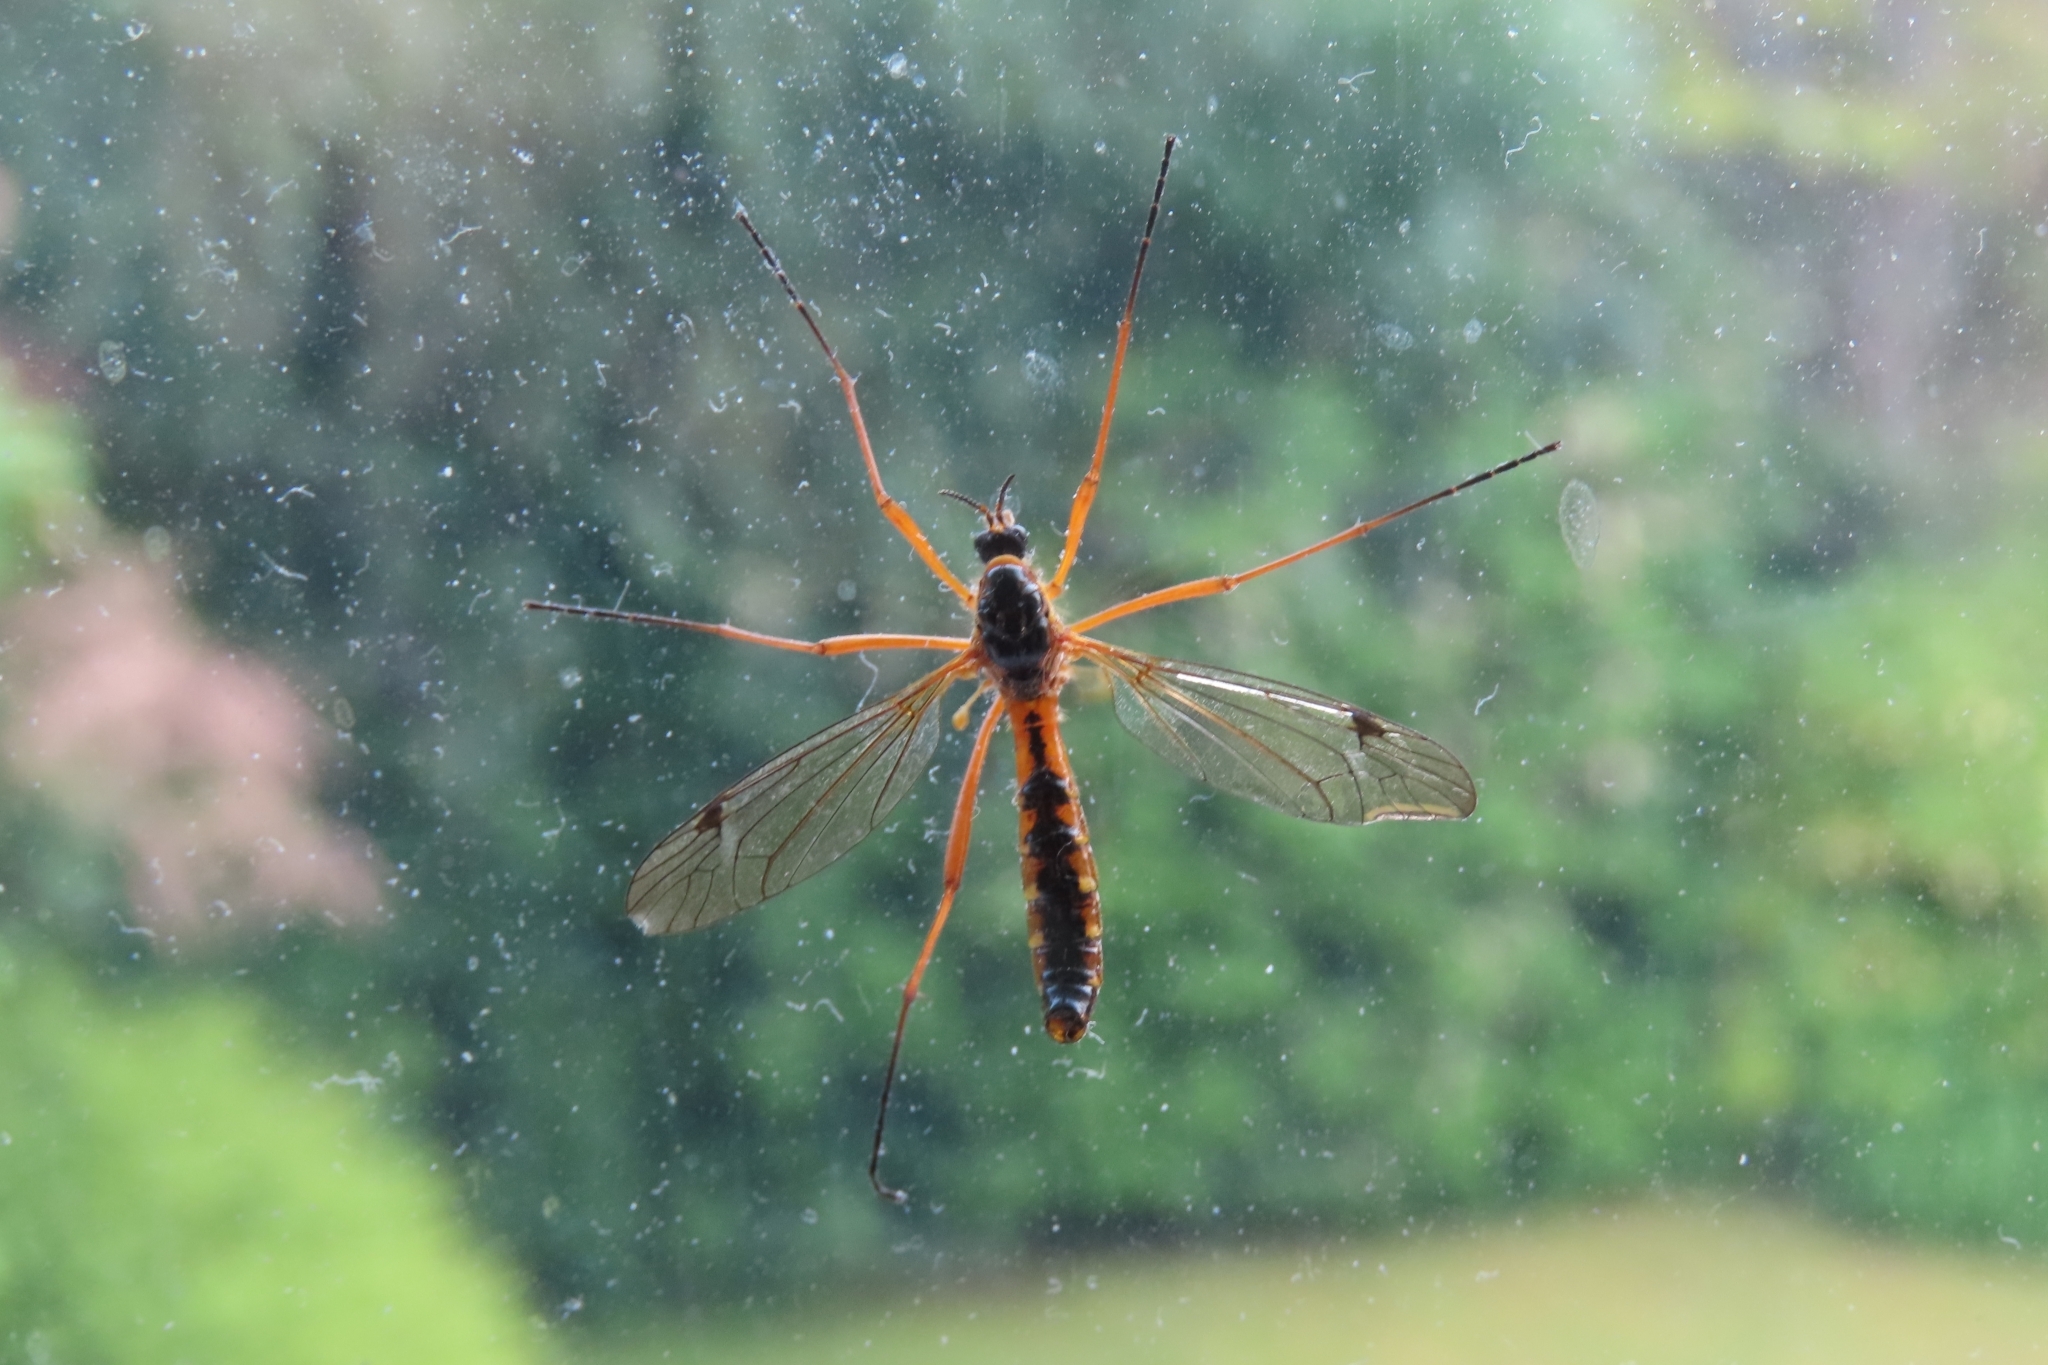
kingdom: Animalia
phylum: Arthropoda
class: Insecta
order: Diptera
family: Tipulidae
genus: Ctenophora
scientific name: Ctenophora pectinicornis
